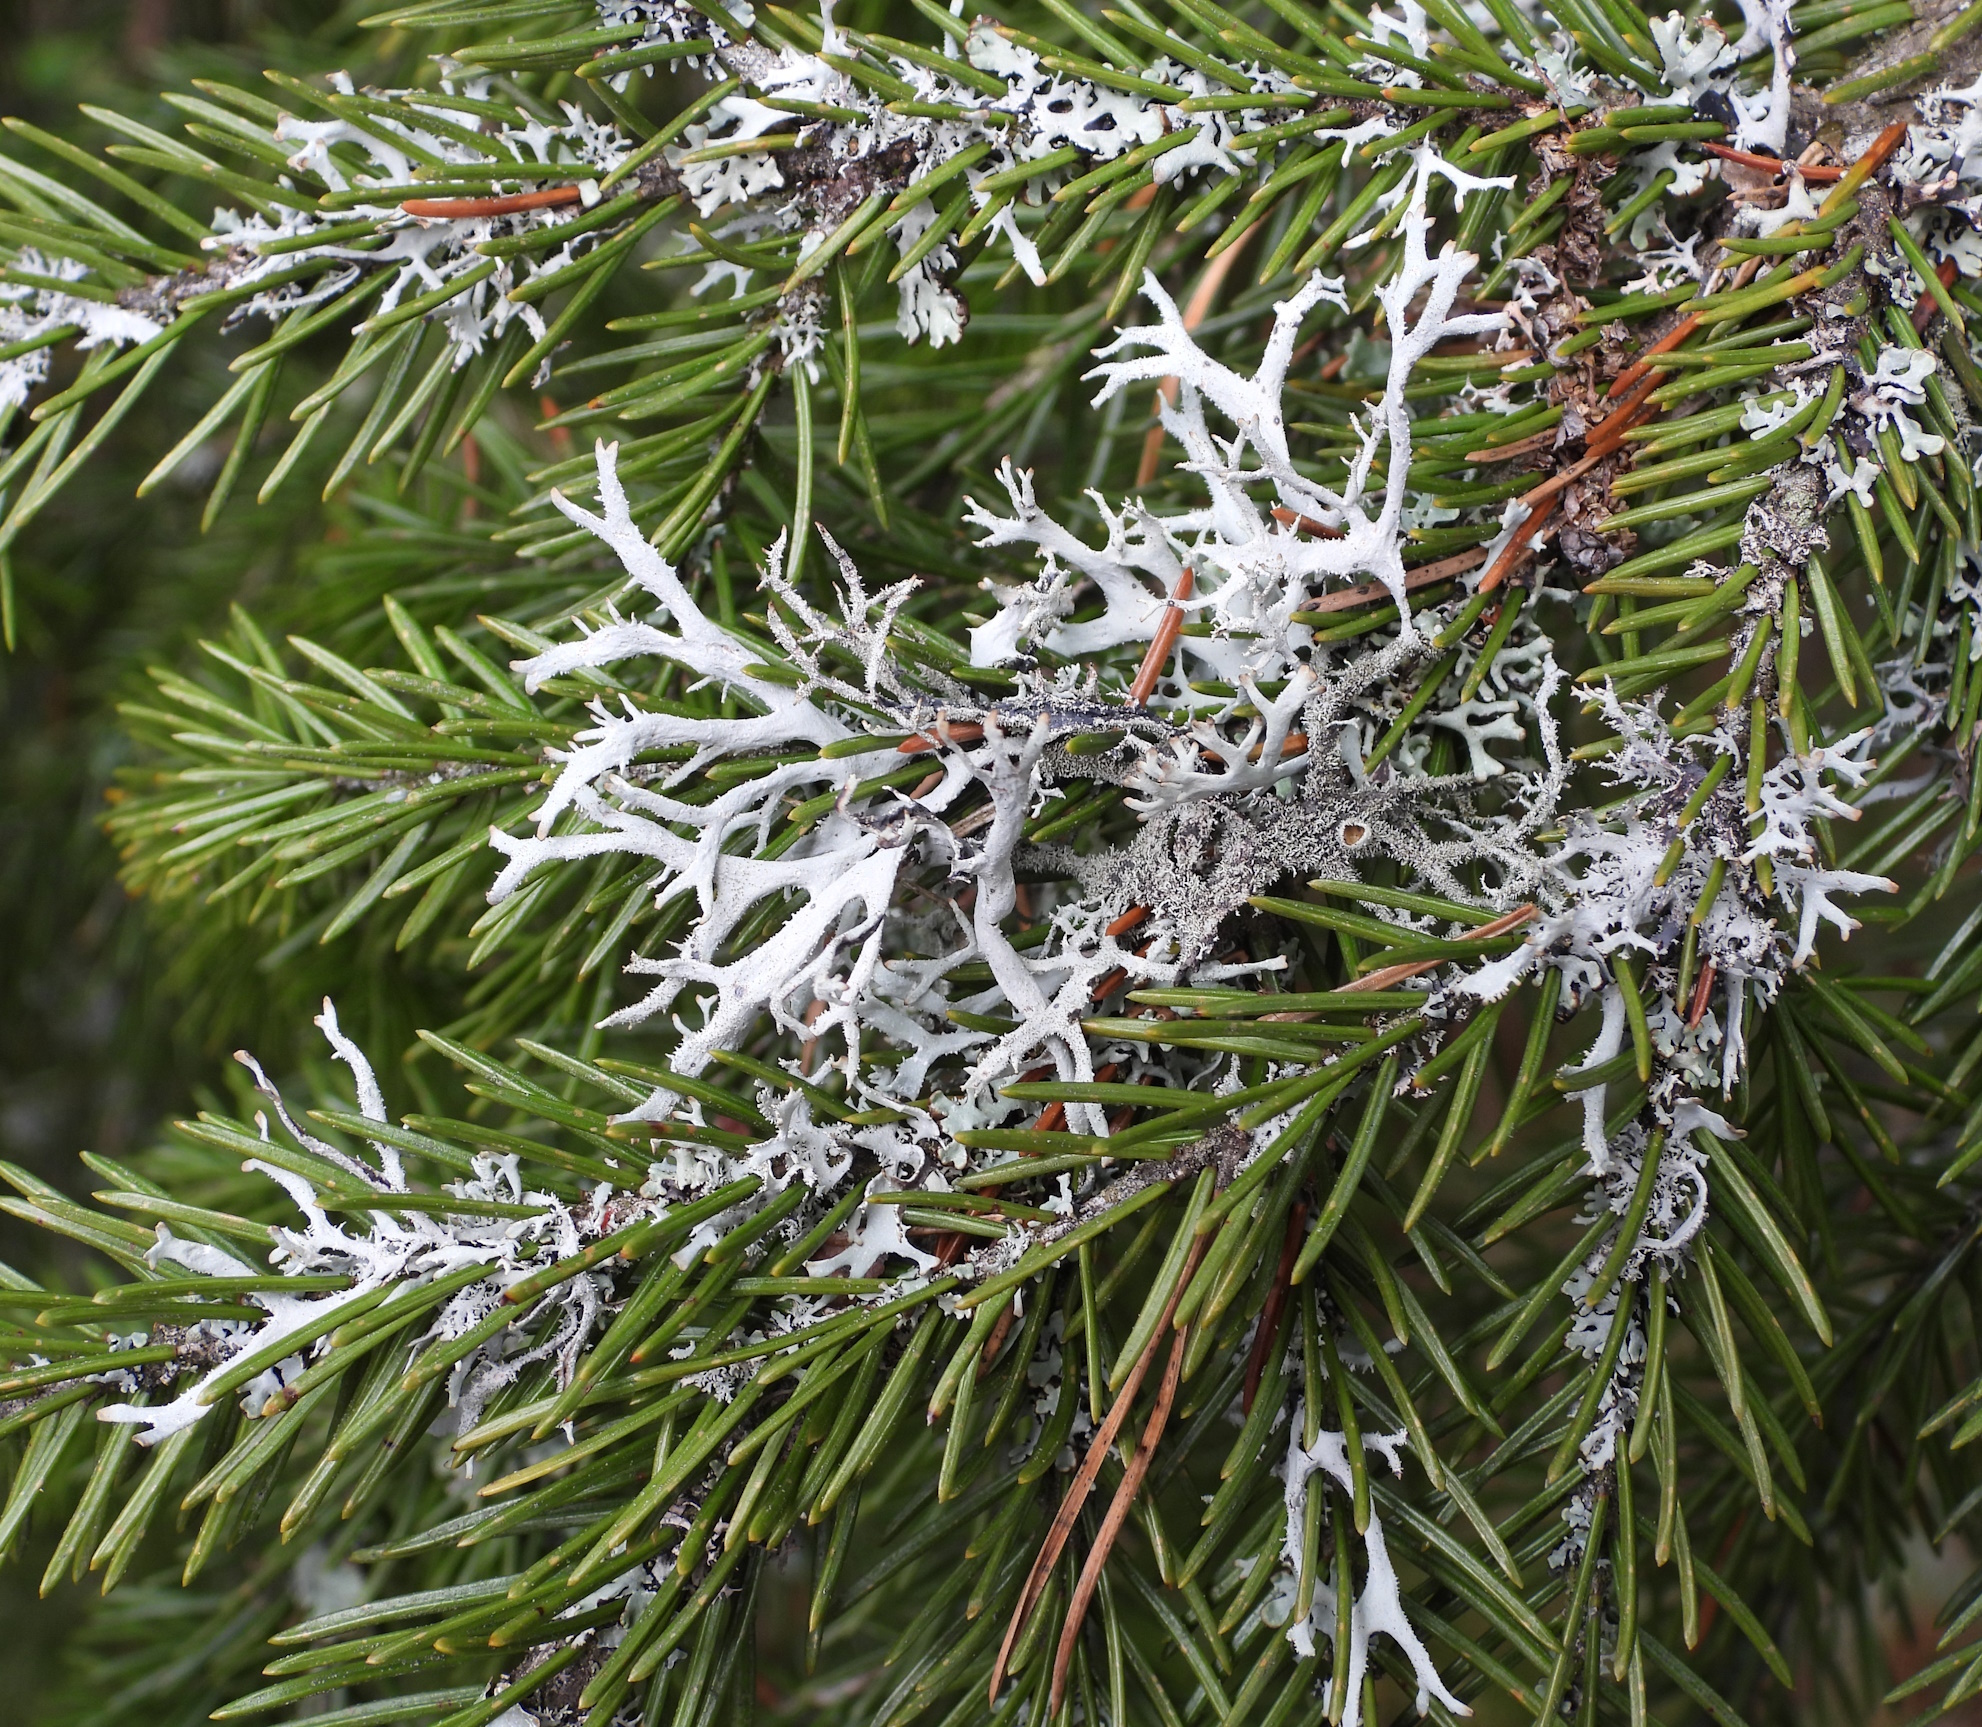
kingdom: Fungi
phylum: Ascomycota
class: Lecanoromycetes
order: Lecanorales
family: Parmeliaceae
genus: Pseudevernia
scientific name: Pseudevernia furfuracea
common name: Tree moss
